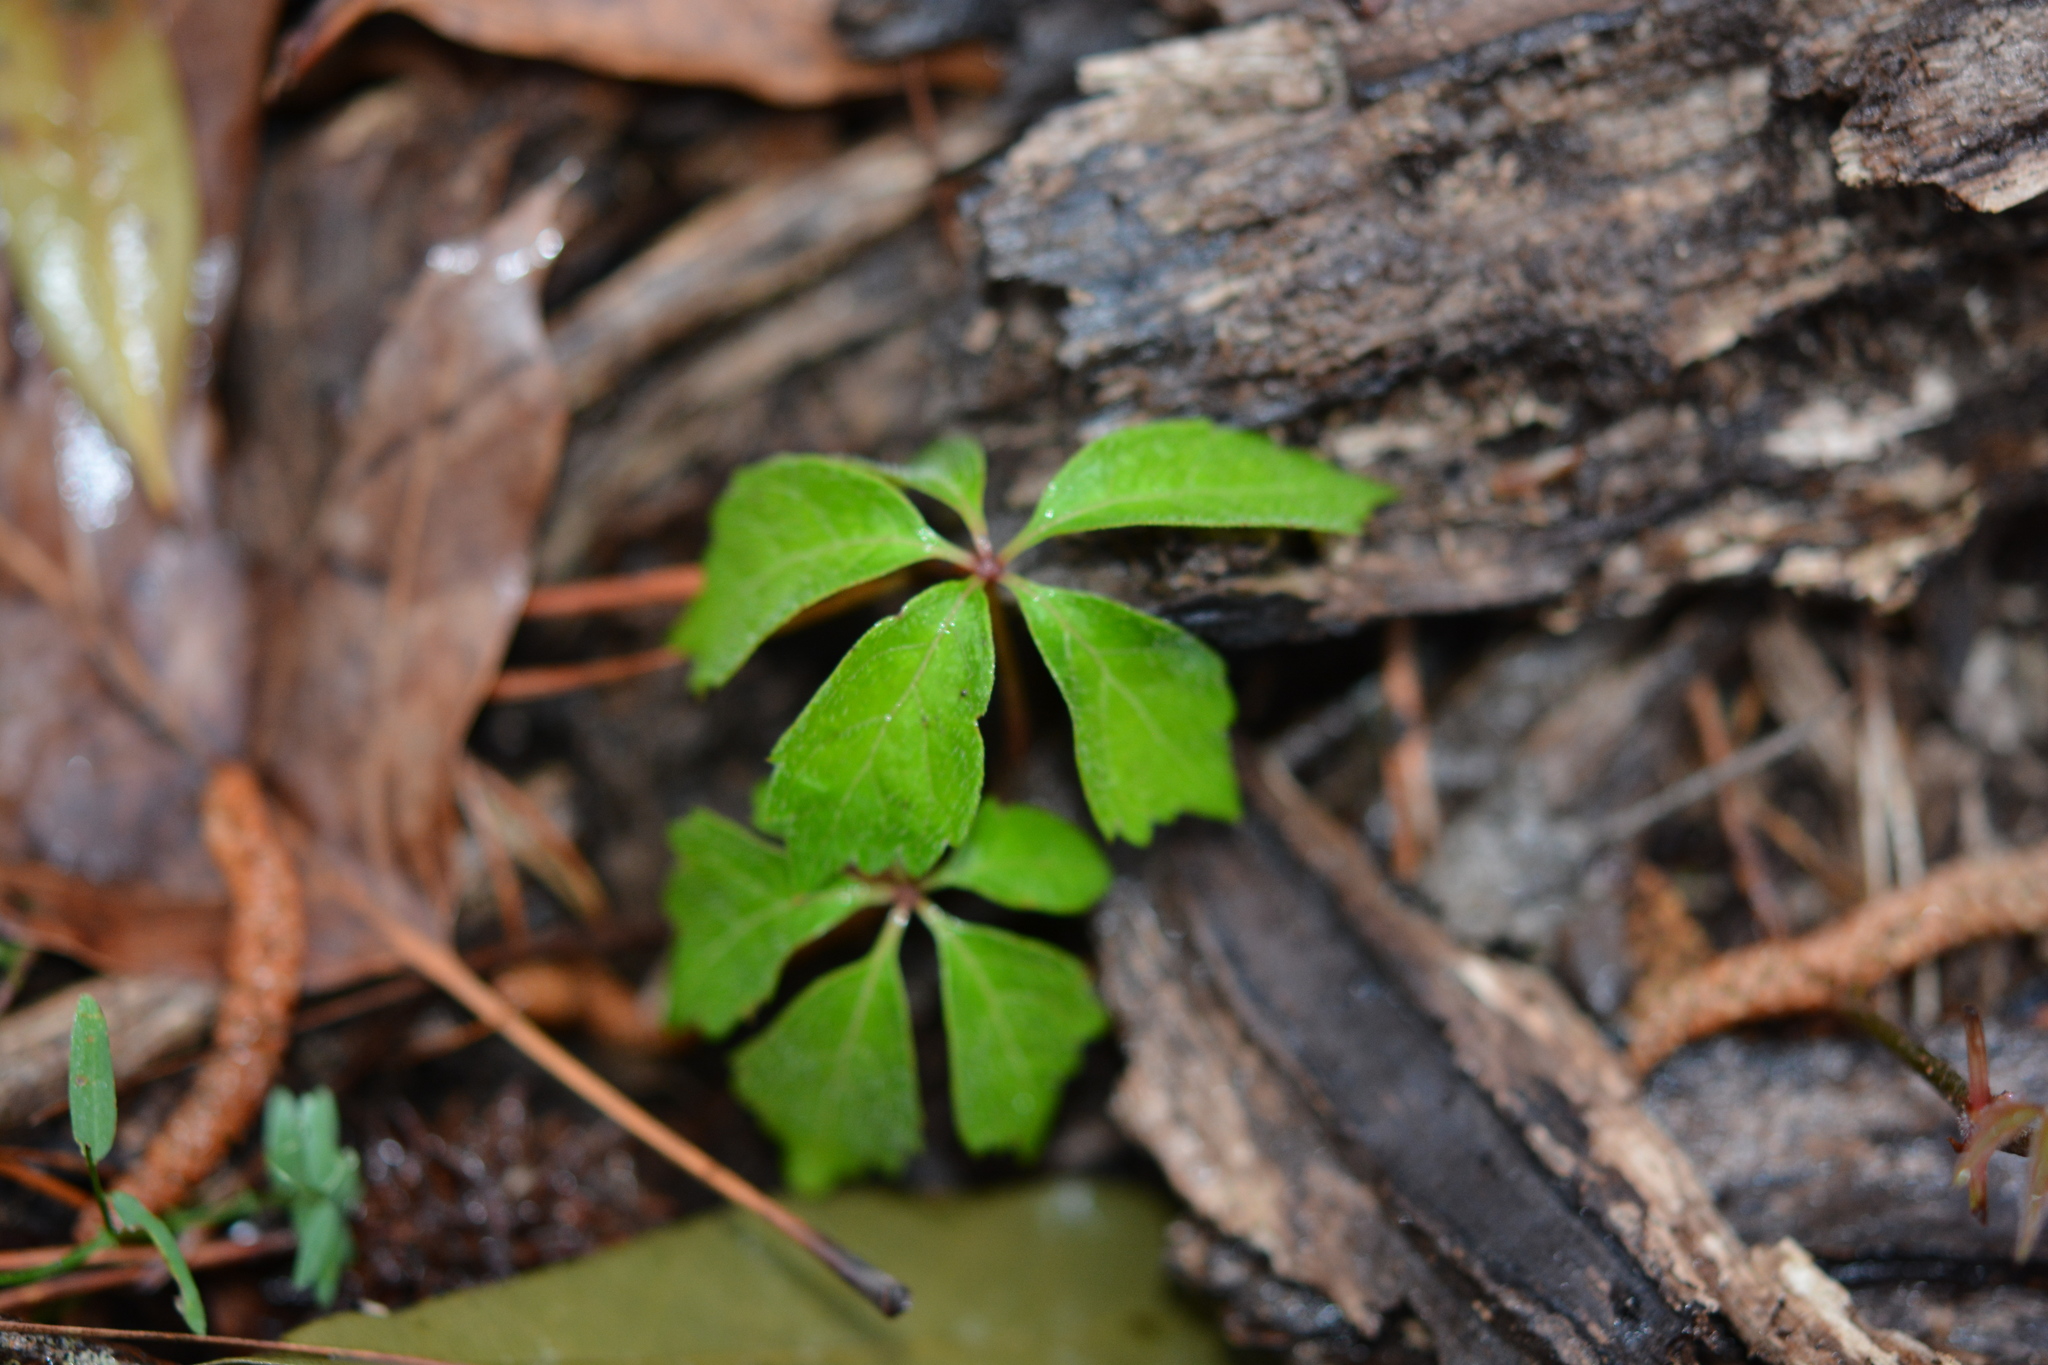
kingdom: Plantae
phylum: Tracheophyta
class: Magnoliopsida
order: Vitales
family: Vitaceae
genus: Parthenocissus
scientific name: Parthenocissus quinquefolia
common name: Virginia-creeper
